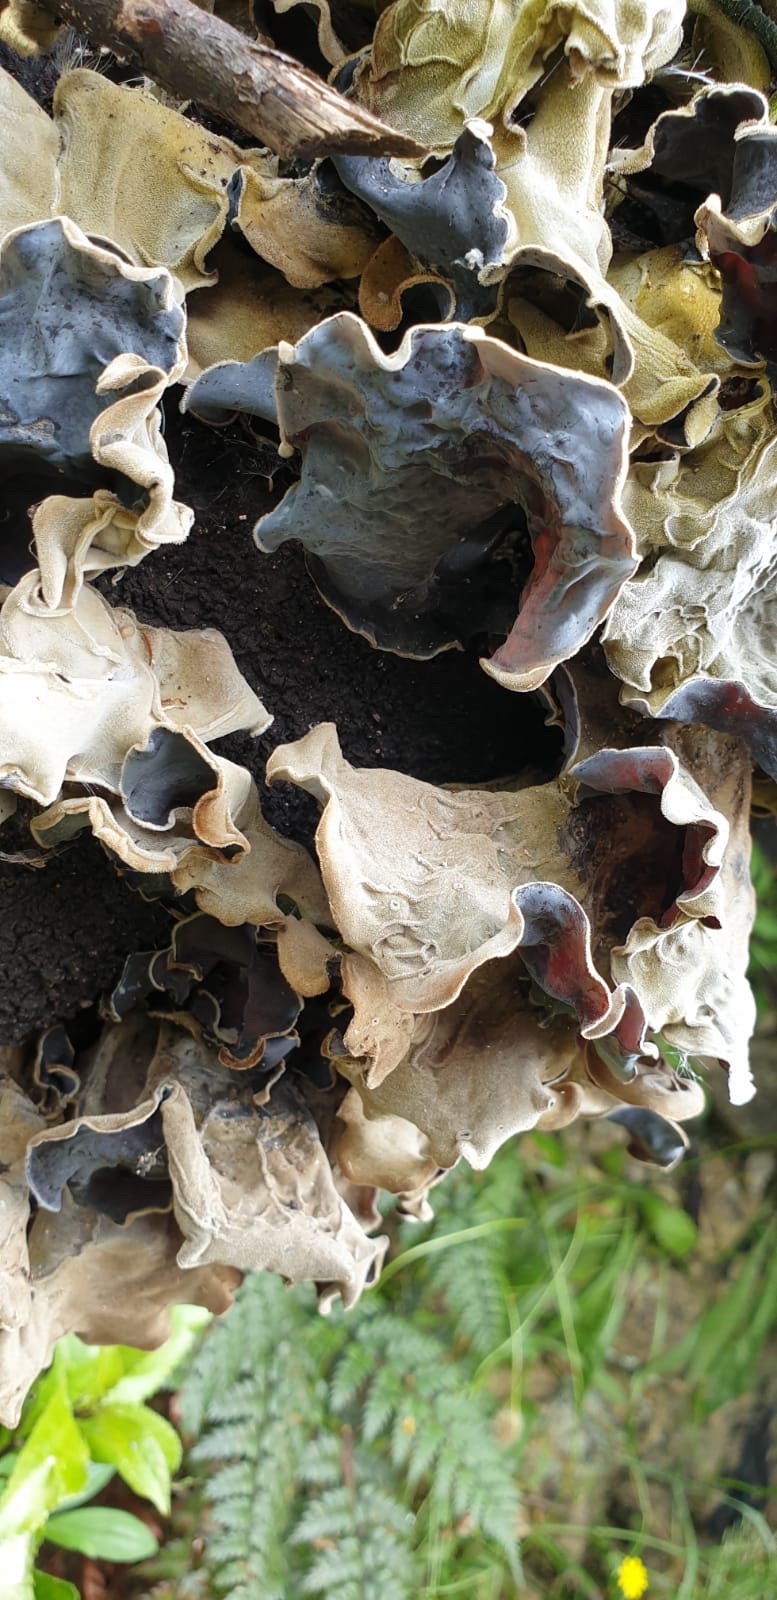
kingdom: Fungi
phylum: Basidiomycota
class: Agaricomycetes
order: Auriculariales
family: Auriculariaceae
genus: Auricularia
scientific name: Auricularia cornea
